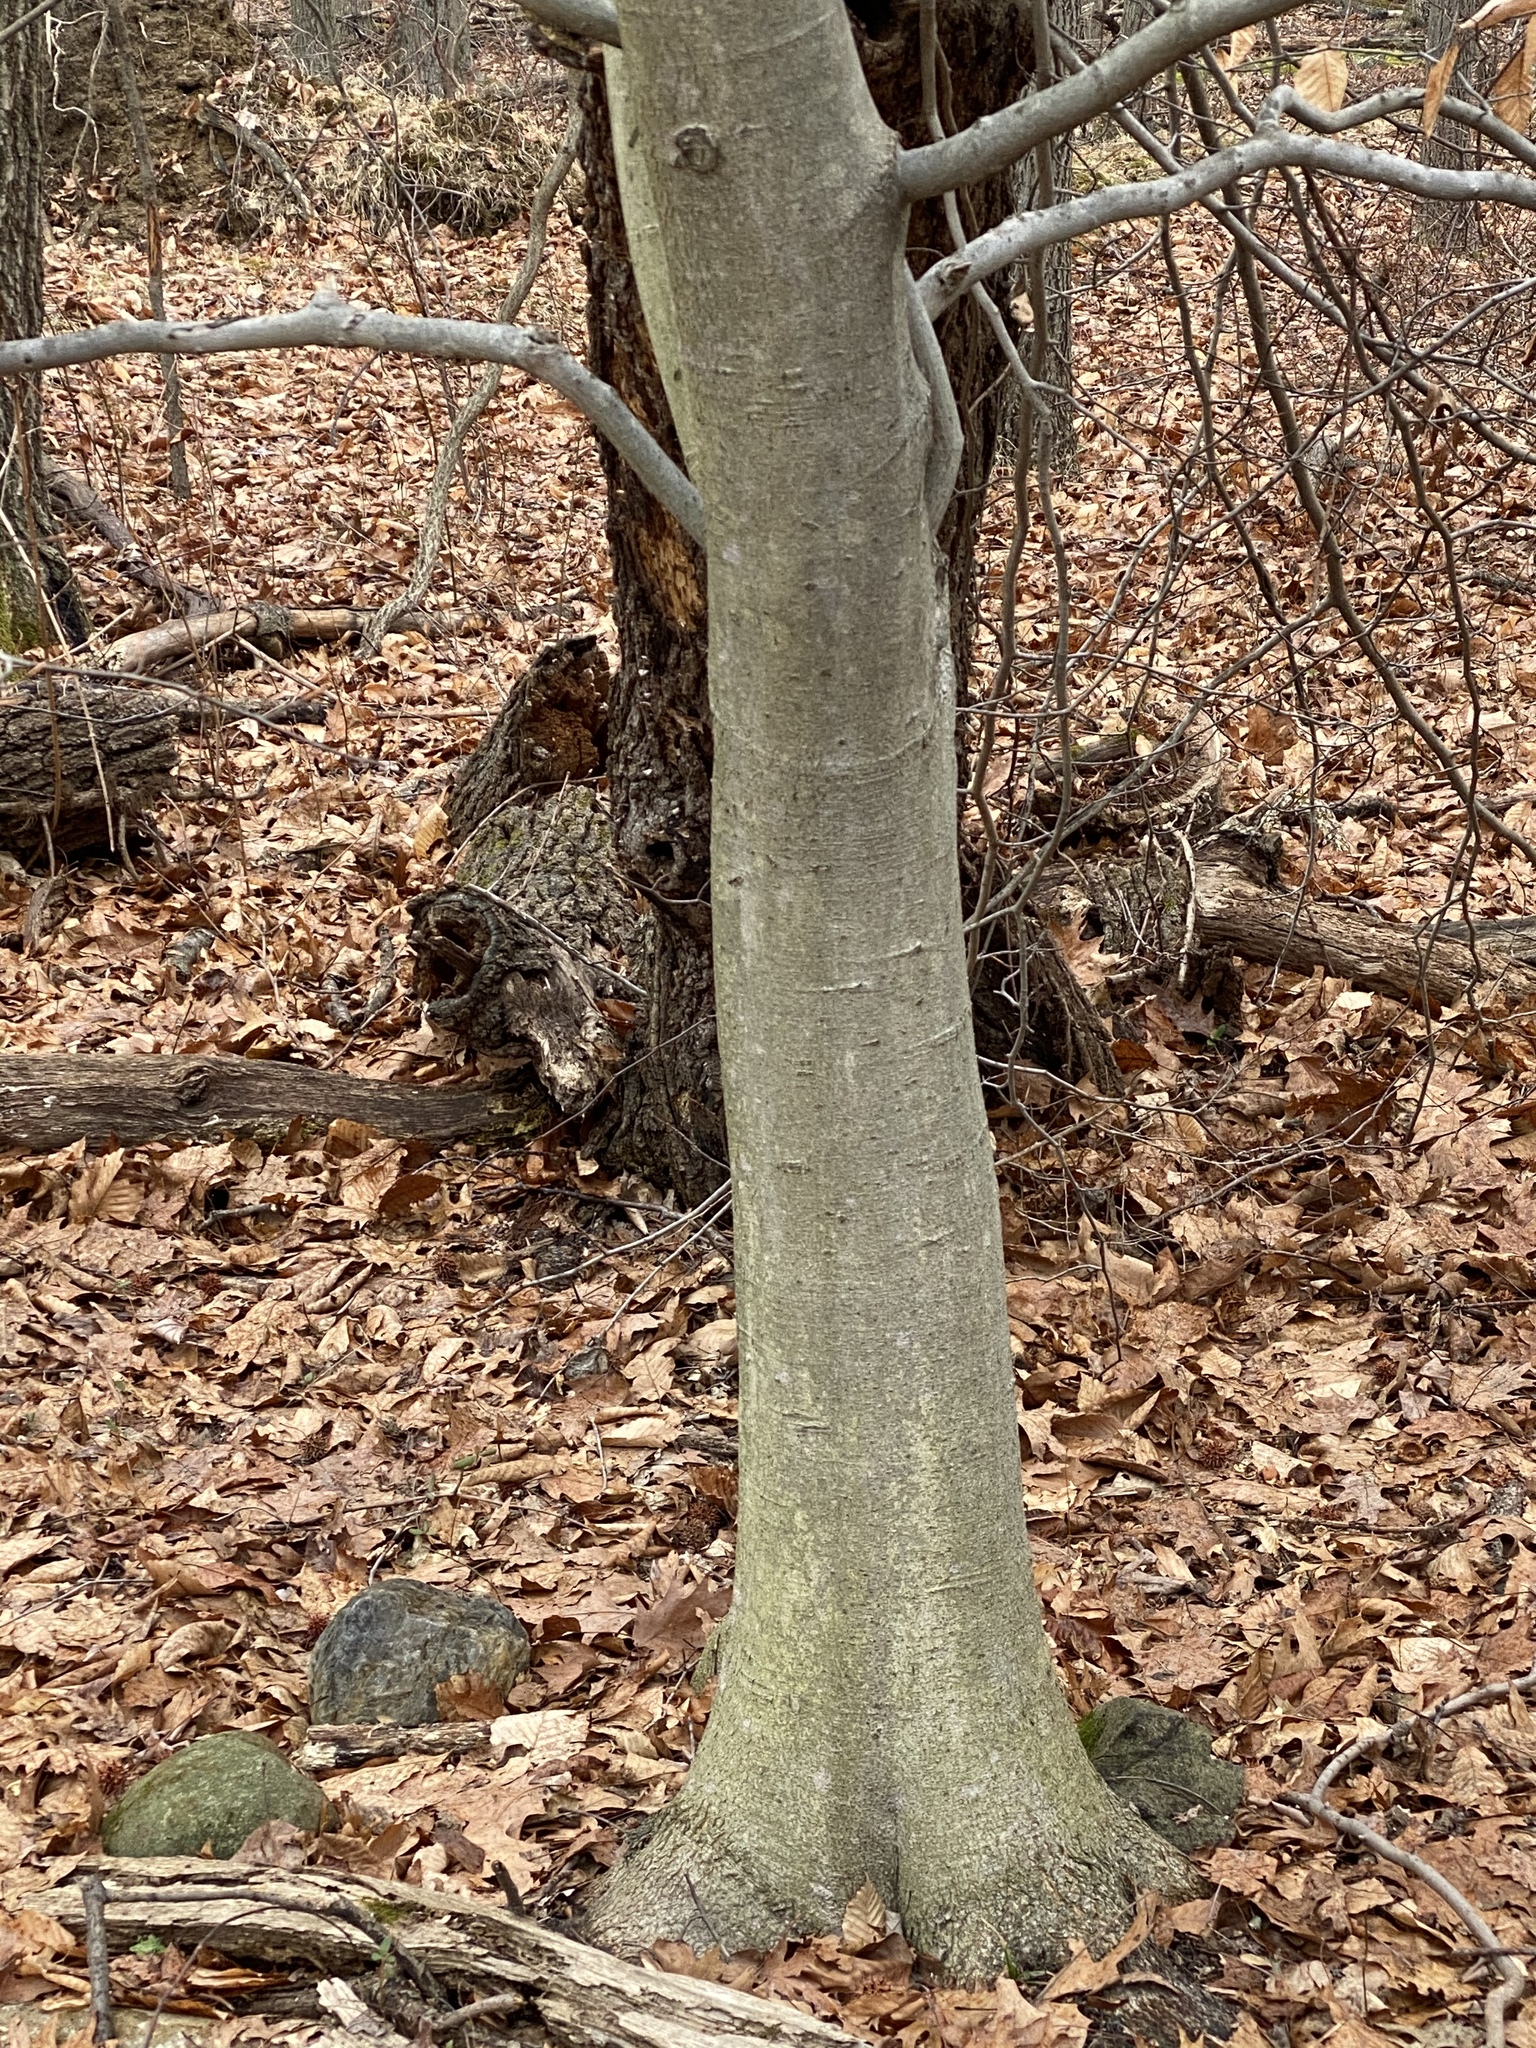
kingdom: Plantae
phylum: Tracheophyta
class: Magnoliopsida
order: Fagales
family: Fagaceae
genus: Fagus
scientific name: Fagus grandifolia
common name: American beech
